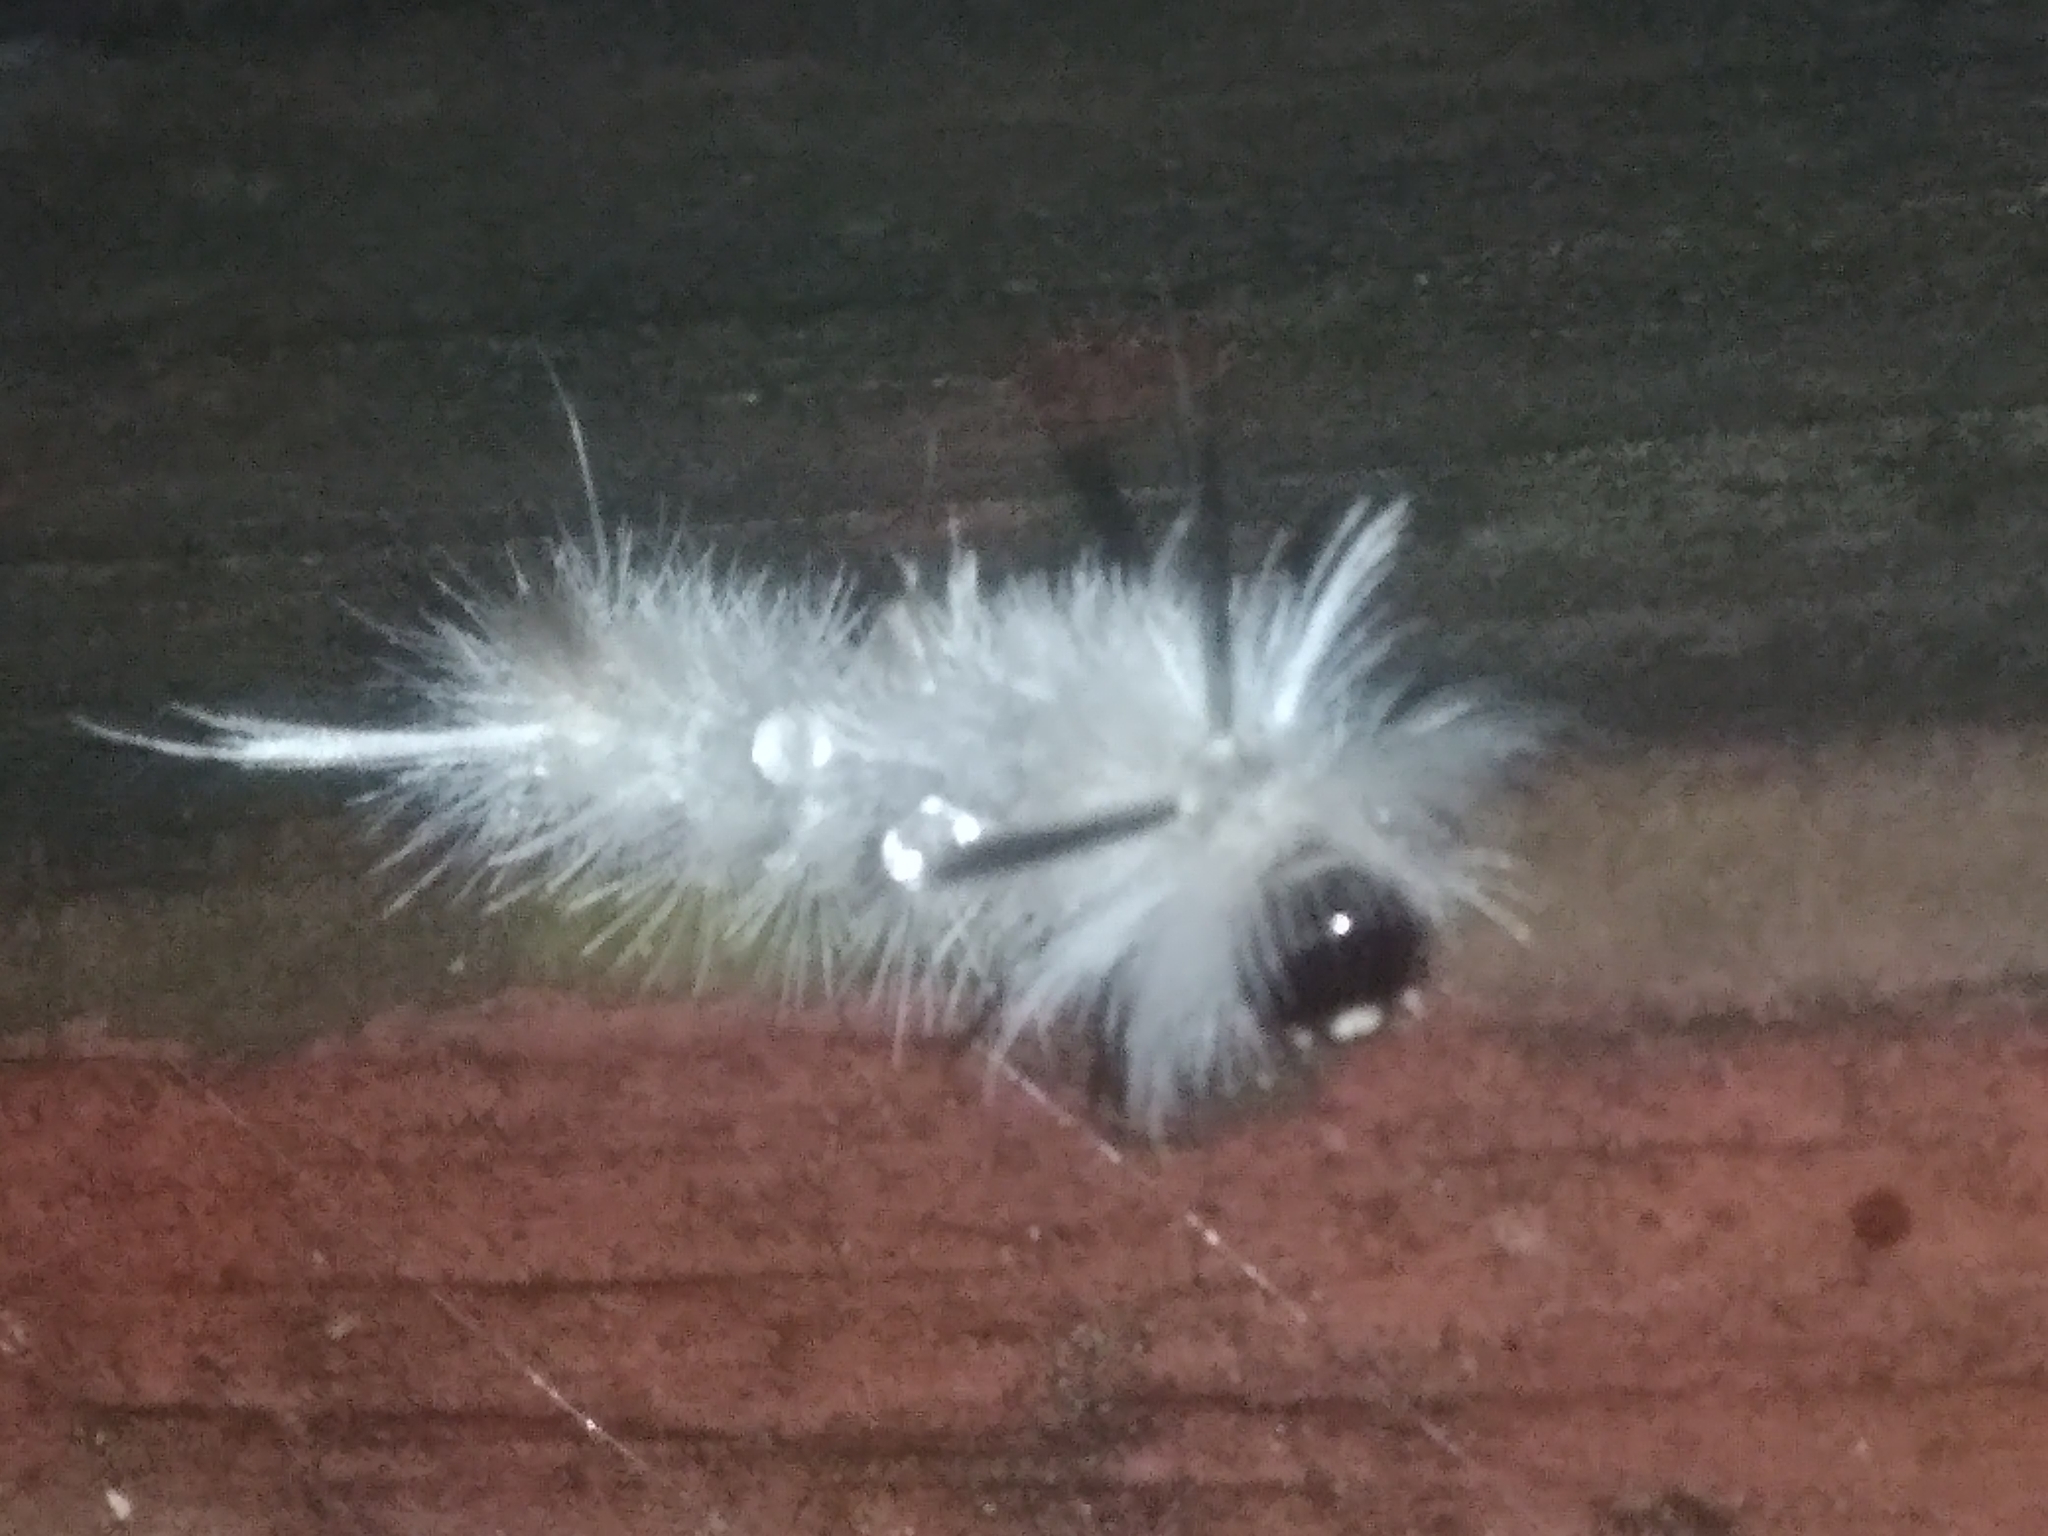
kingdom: Animalia
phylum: Arthropoda
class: Insecta
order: Lepidoptera
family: Erebidae
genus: Halysidota
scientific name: Halysidota tessellaris
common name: Banded tussock moth
